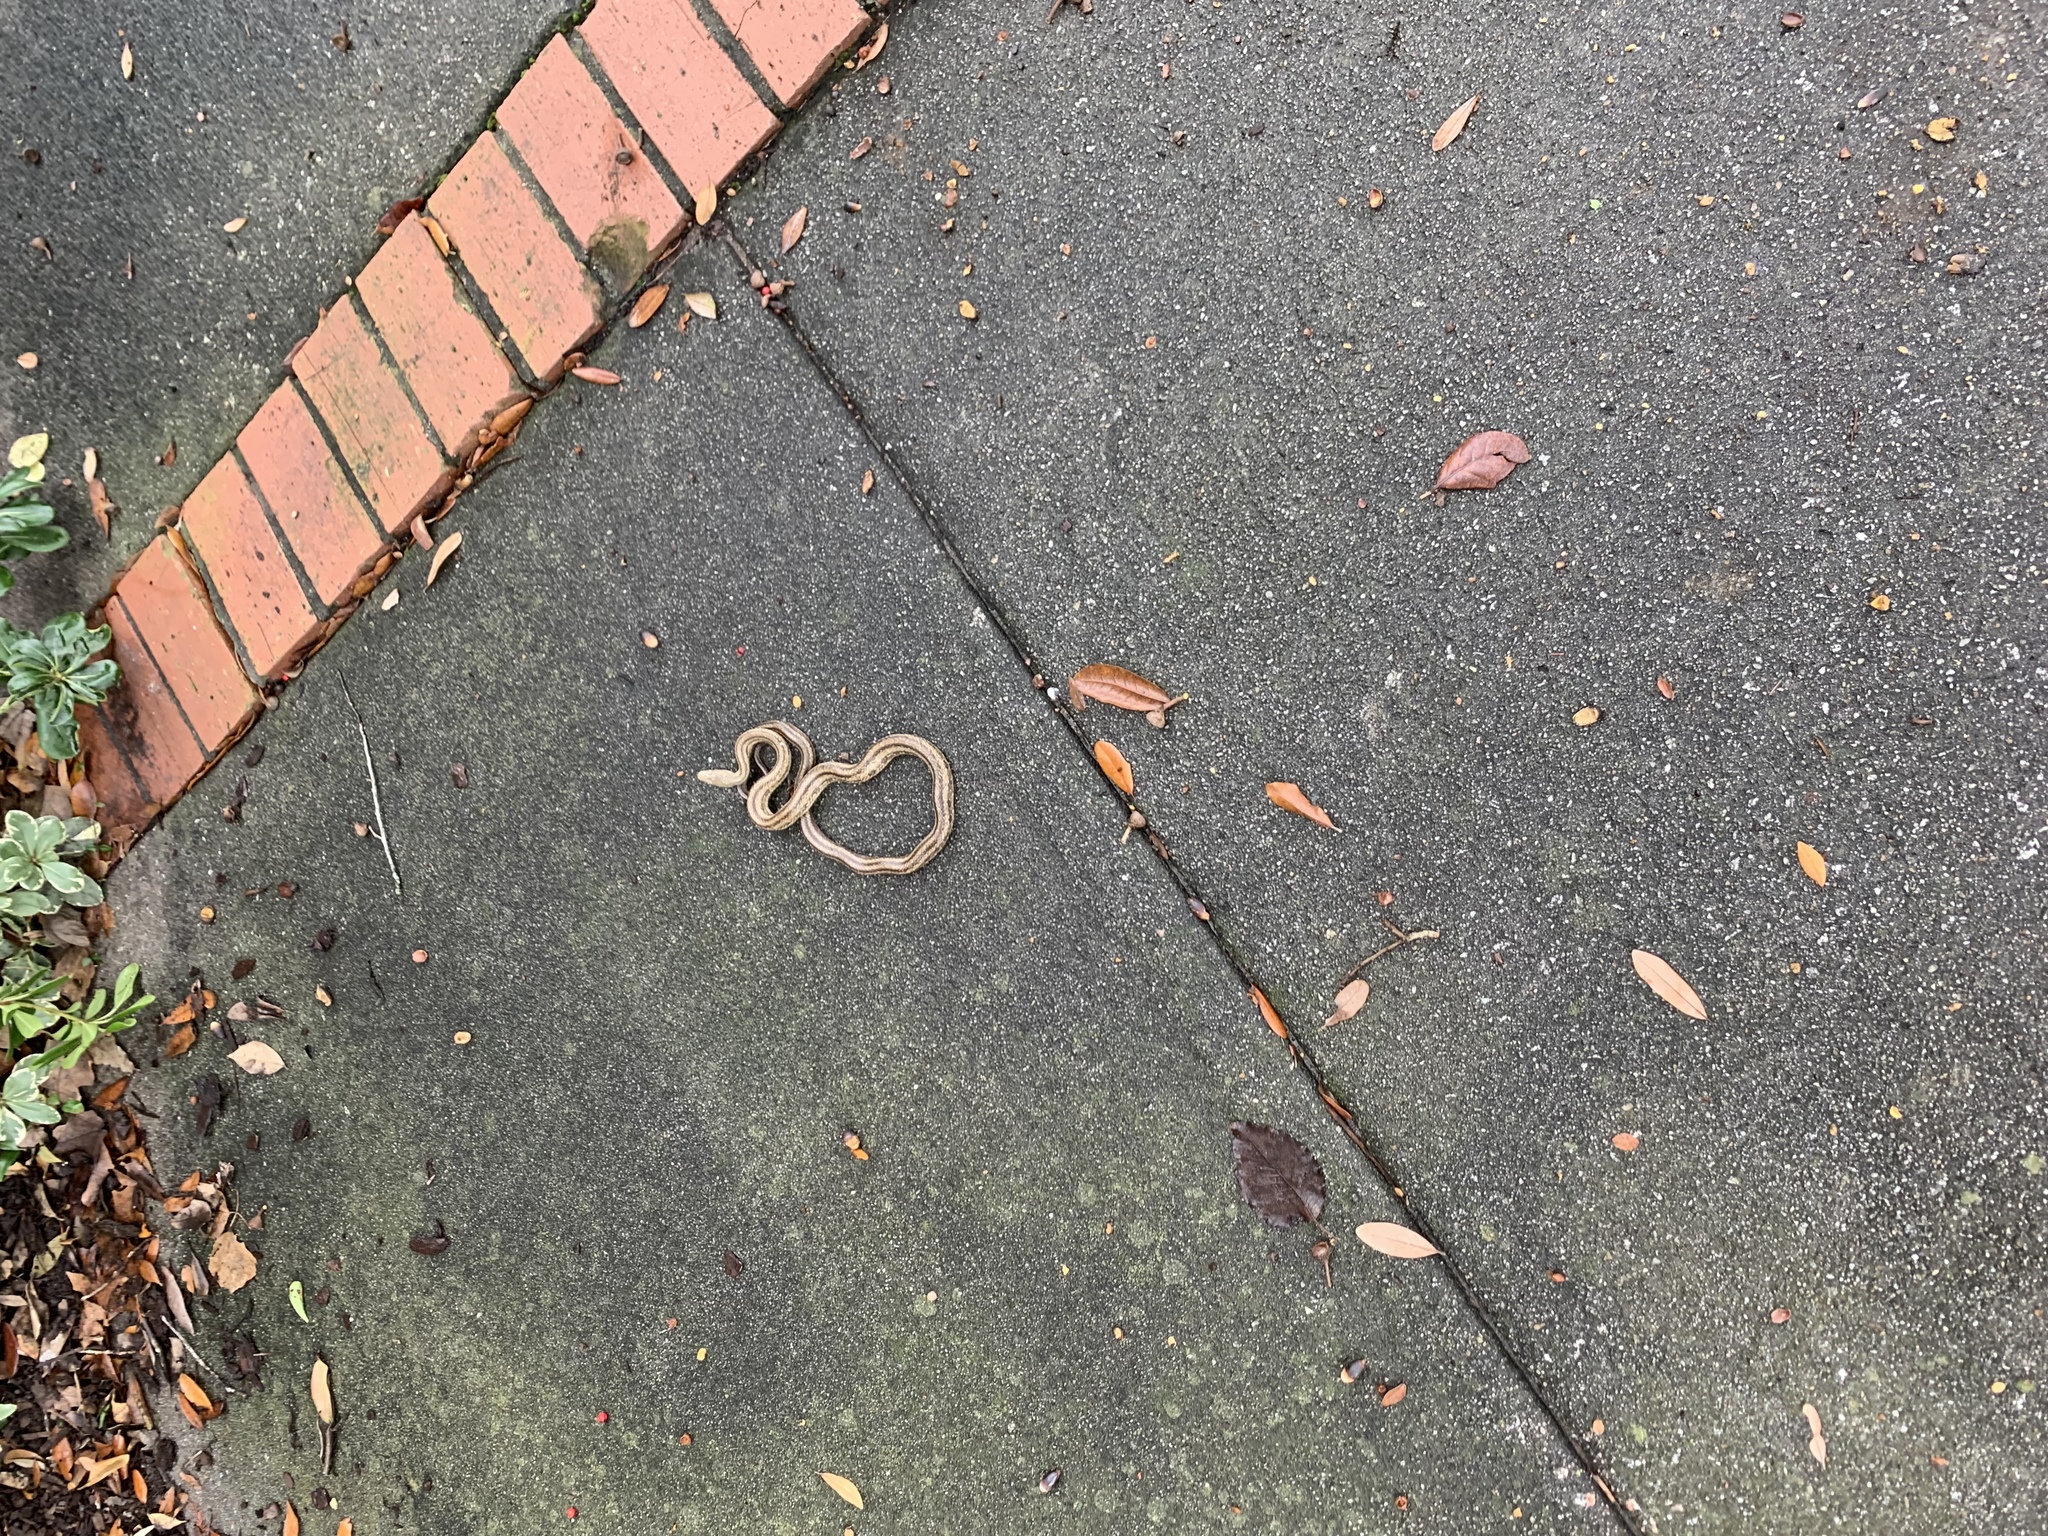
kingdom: Animalia
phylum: Chordata
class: Squamata
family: Colubridae
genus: Pantherophis
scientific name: Pantherophis alleghaniensis
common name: Eastern rat snake
